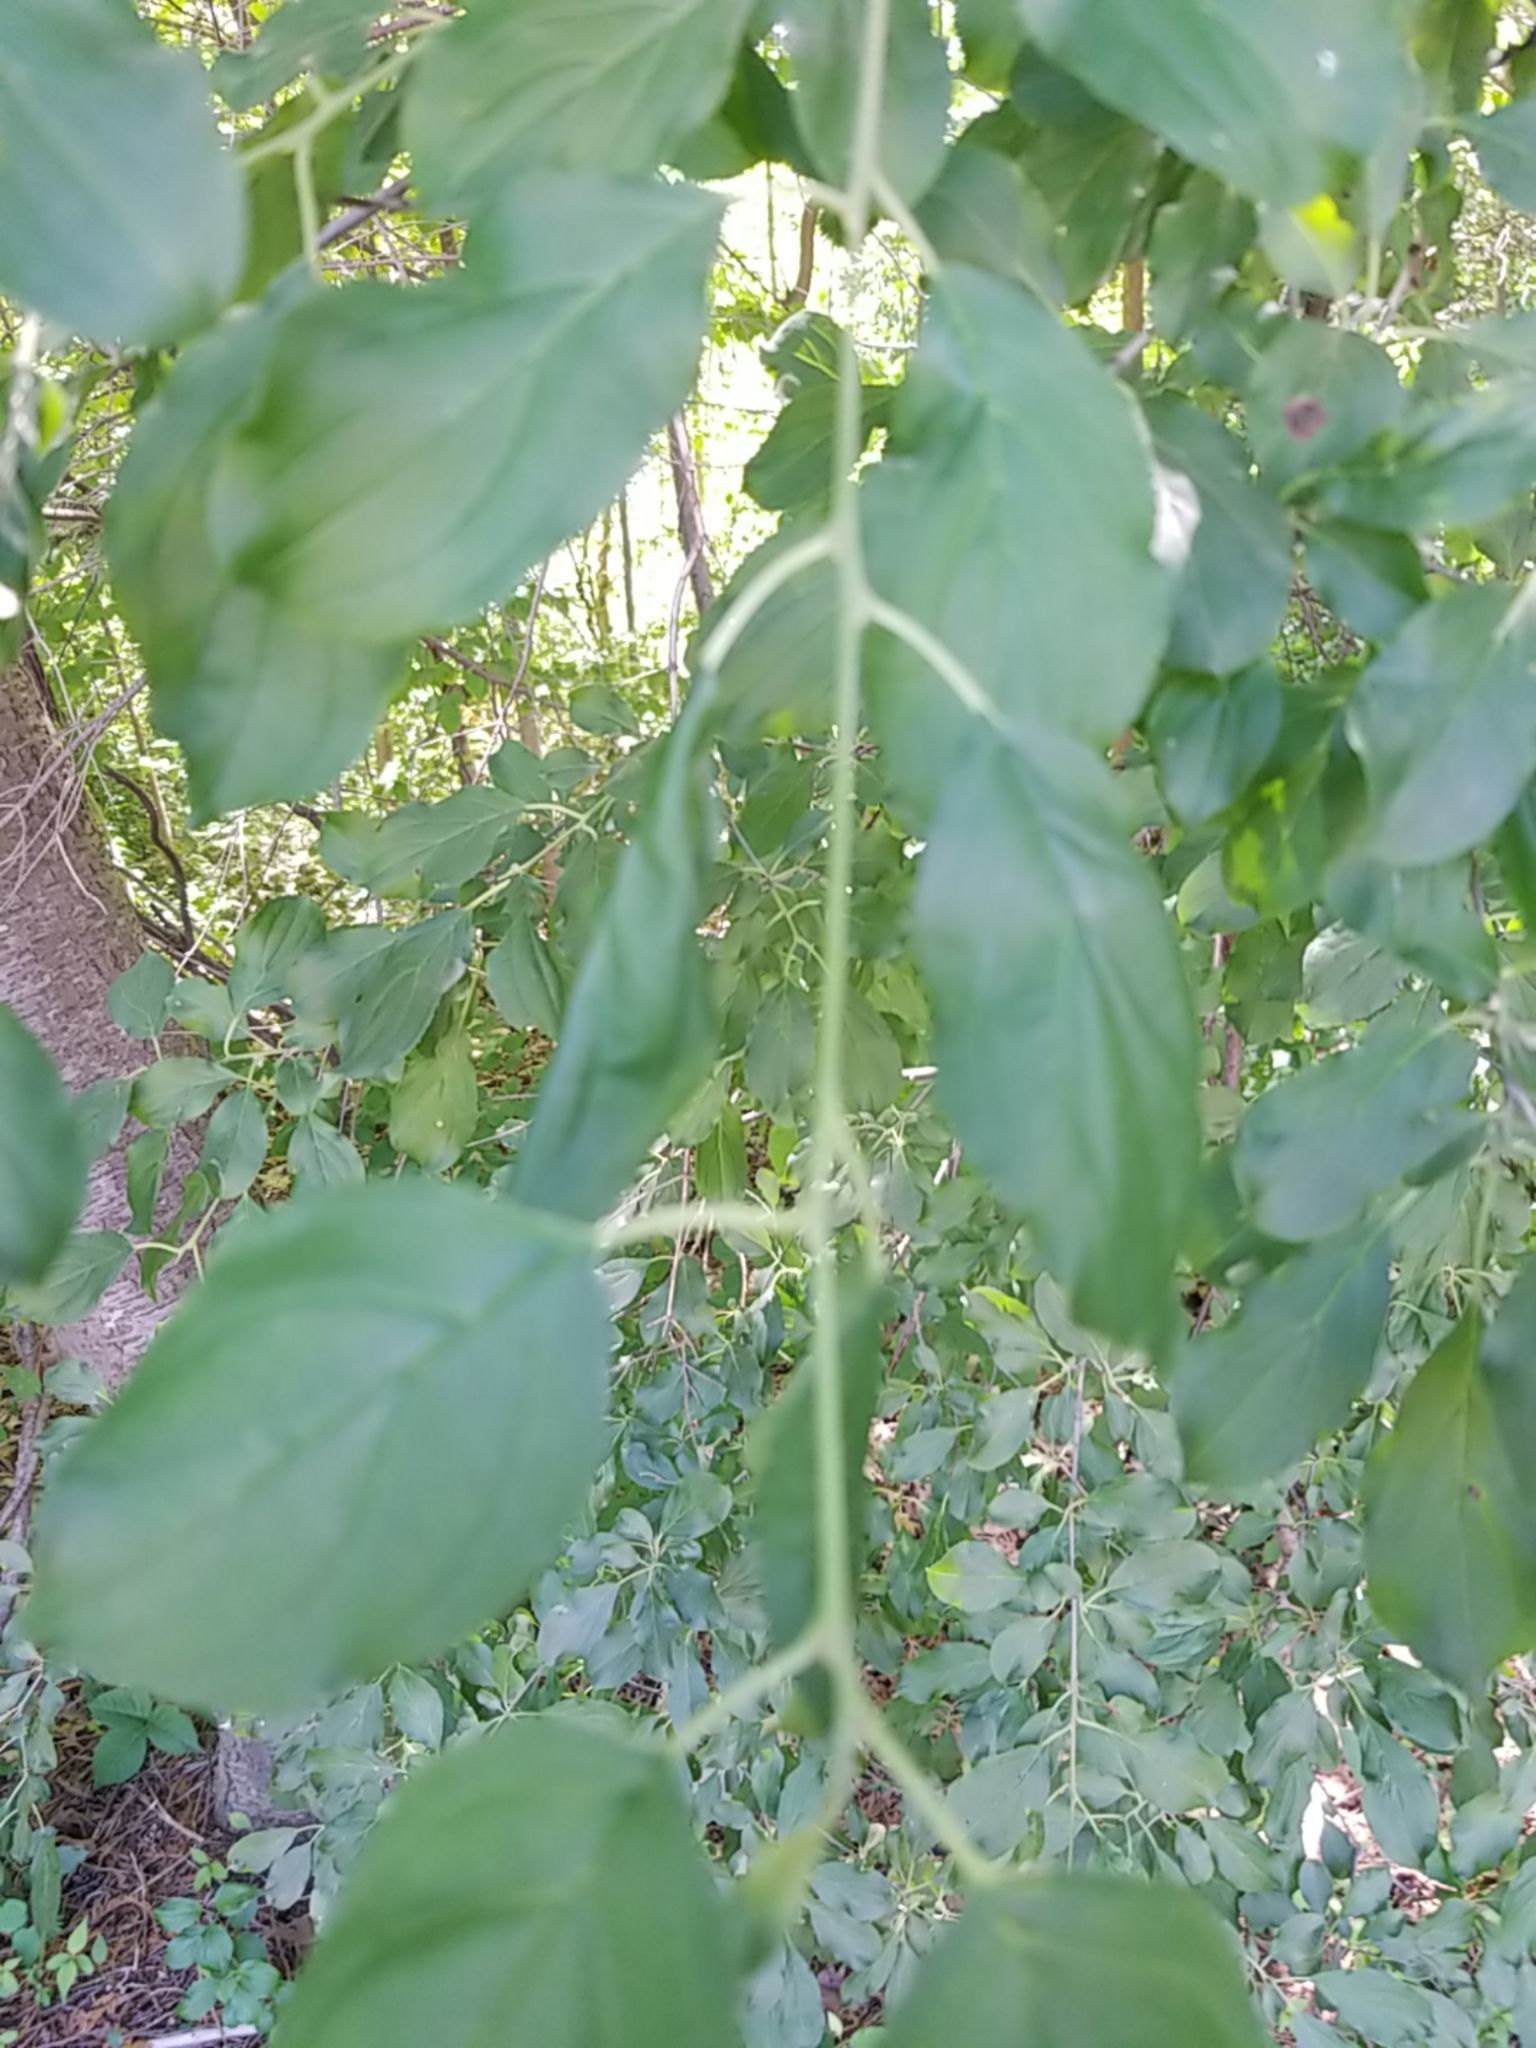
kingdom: Plantae
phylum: Tracheophyta
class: Magnoliopsida
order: Rosales
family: Rhamnaceae
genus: Rhamnus
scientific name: Rhamnus cathartica
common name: Common buckthorn
